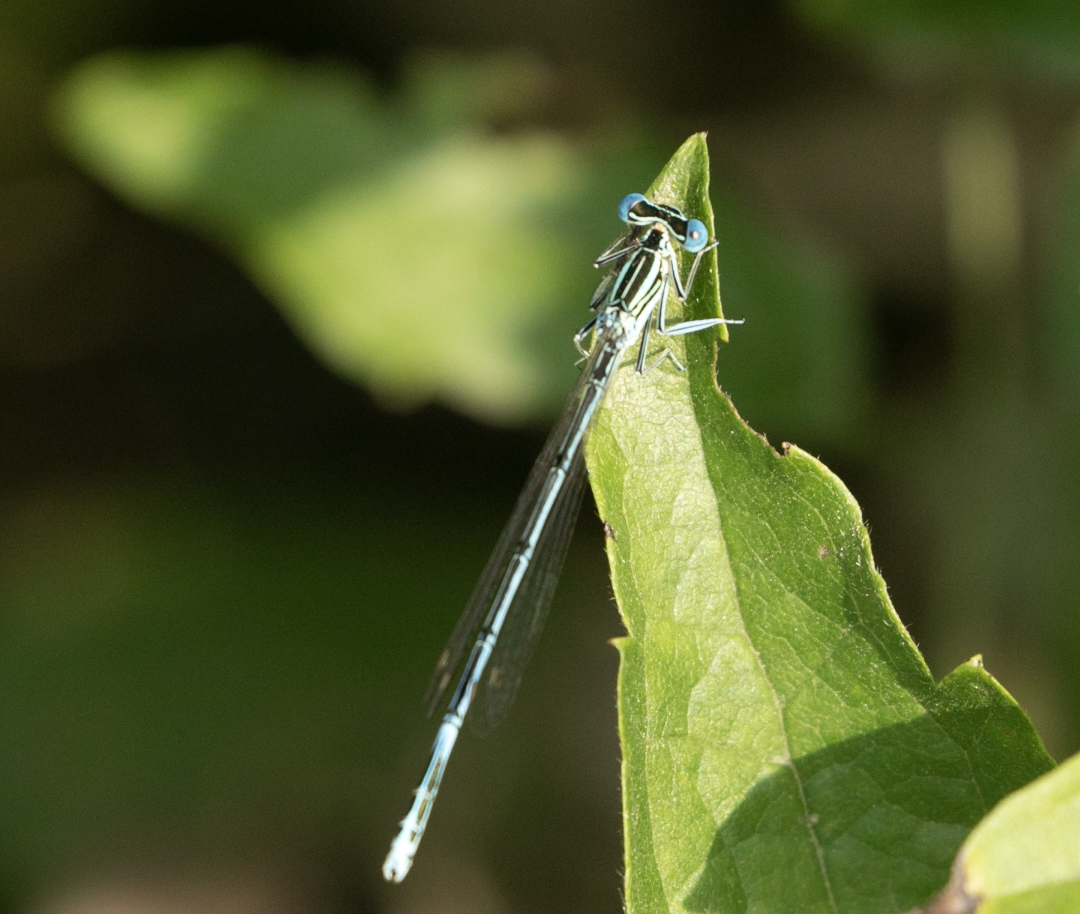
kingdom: Animalia
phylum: Arthropoda
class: Insecta
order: Odonata
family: Platycnemididae
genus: Platycnemis
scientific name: Platycnemis pennipes
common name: White-legged damselfly
